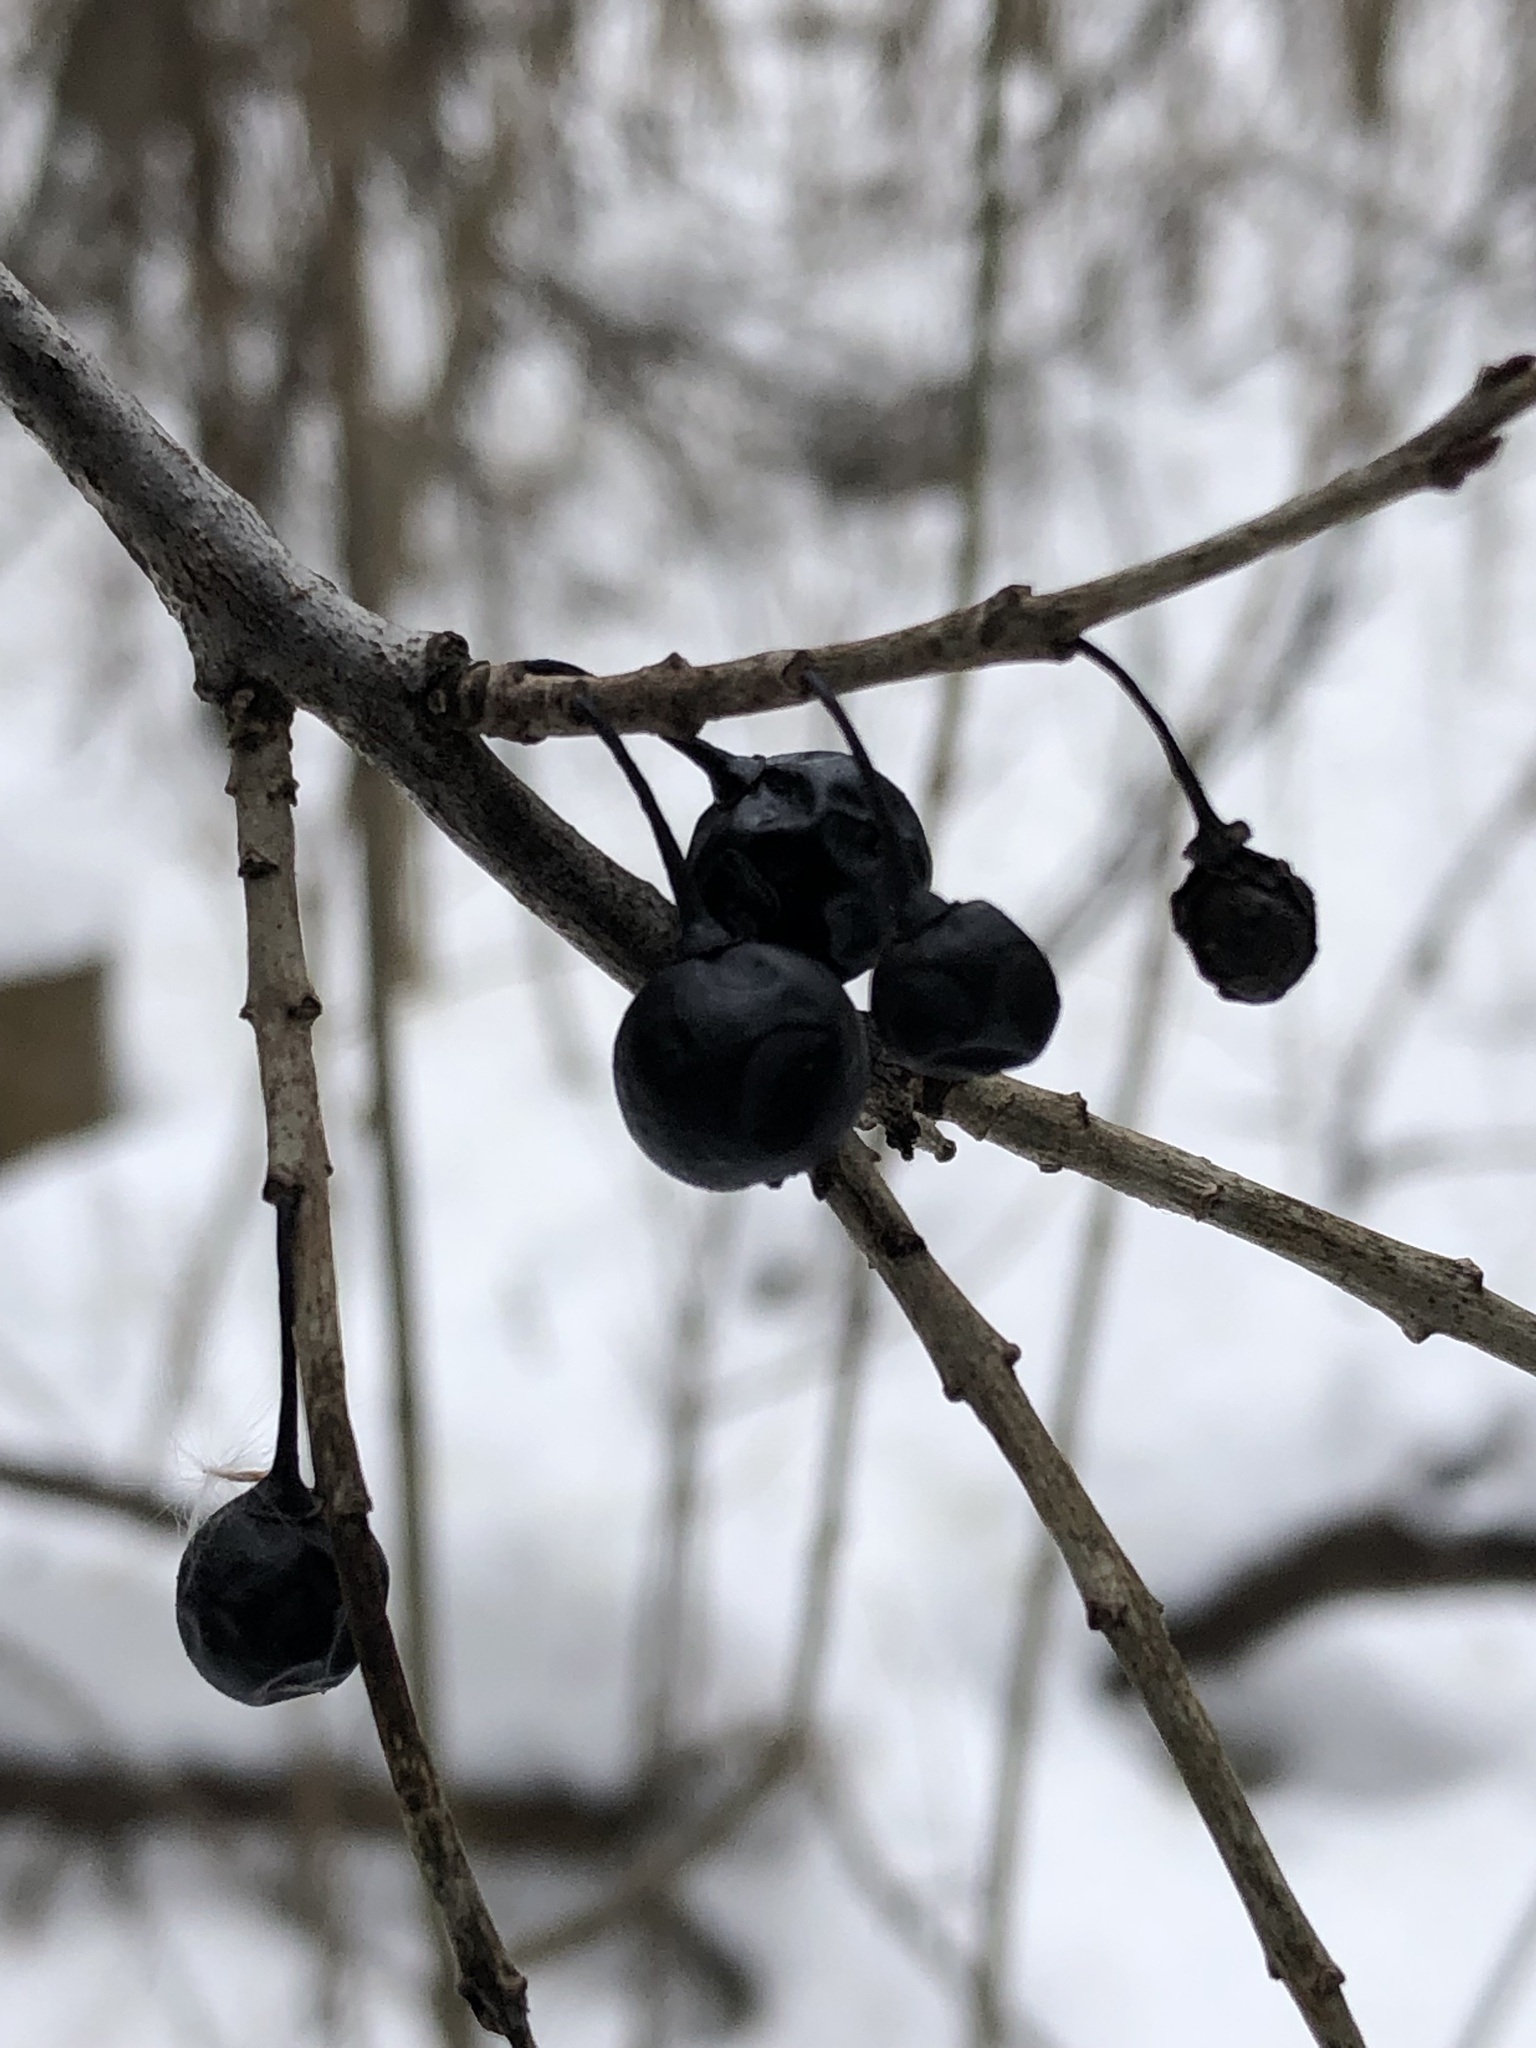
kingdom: Plantae
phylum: Tracheophyta
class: Magnoliopsida
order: Rosales
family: Rhamnaceae
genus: Rhamnus
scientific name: Rhamnus cathartica
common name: Common buckthorn
